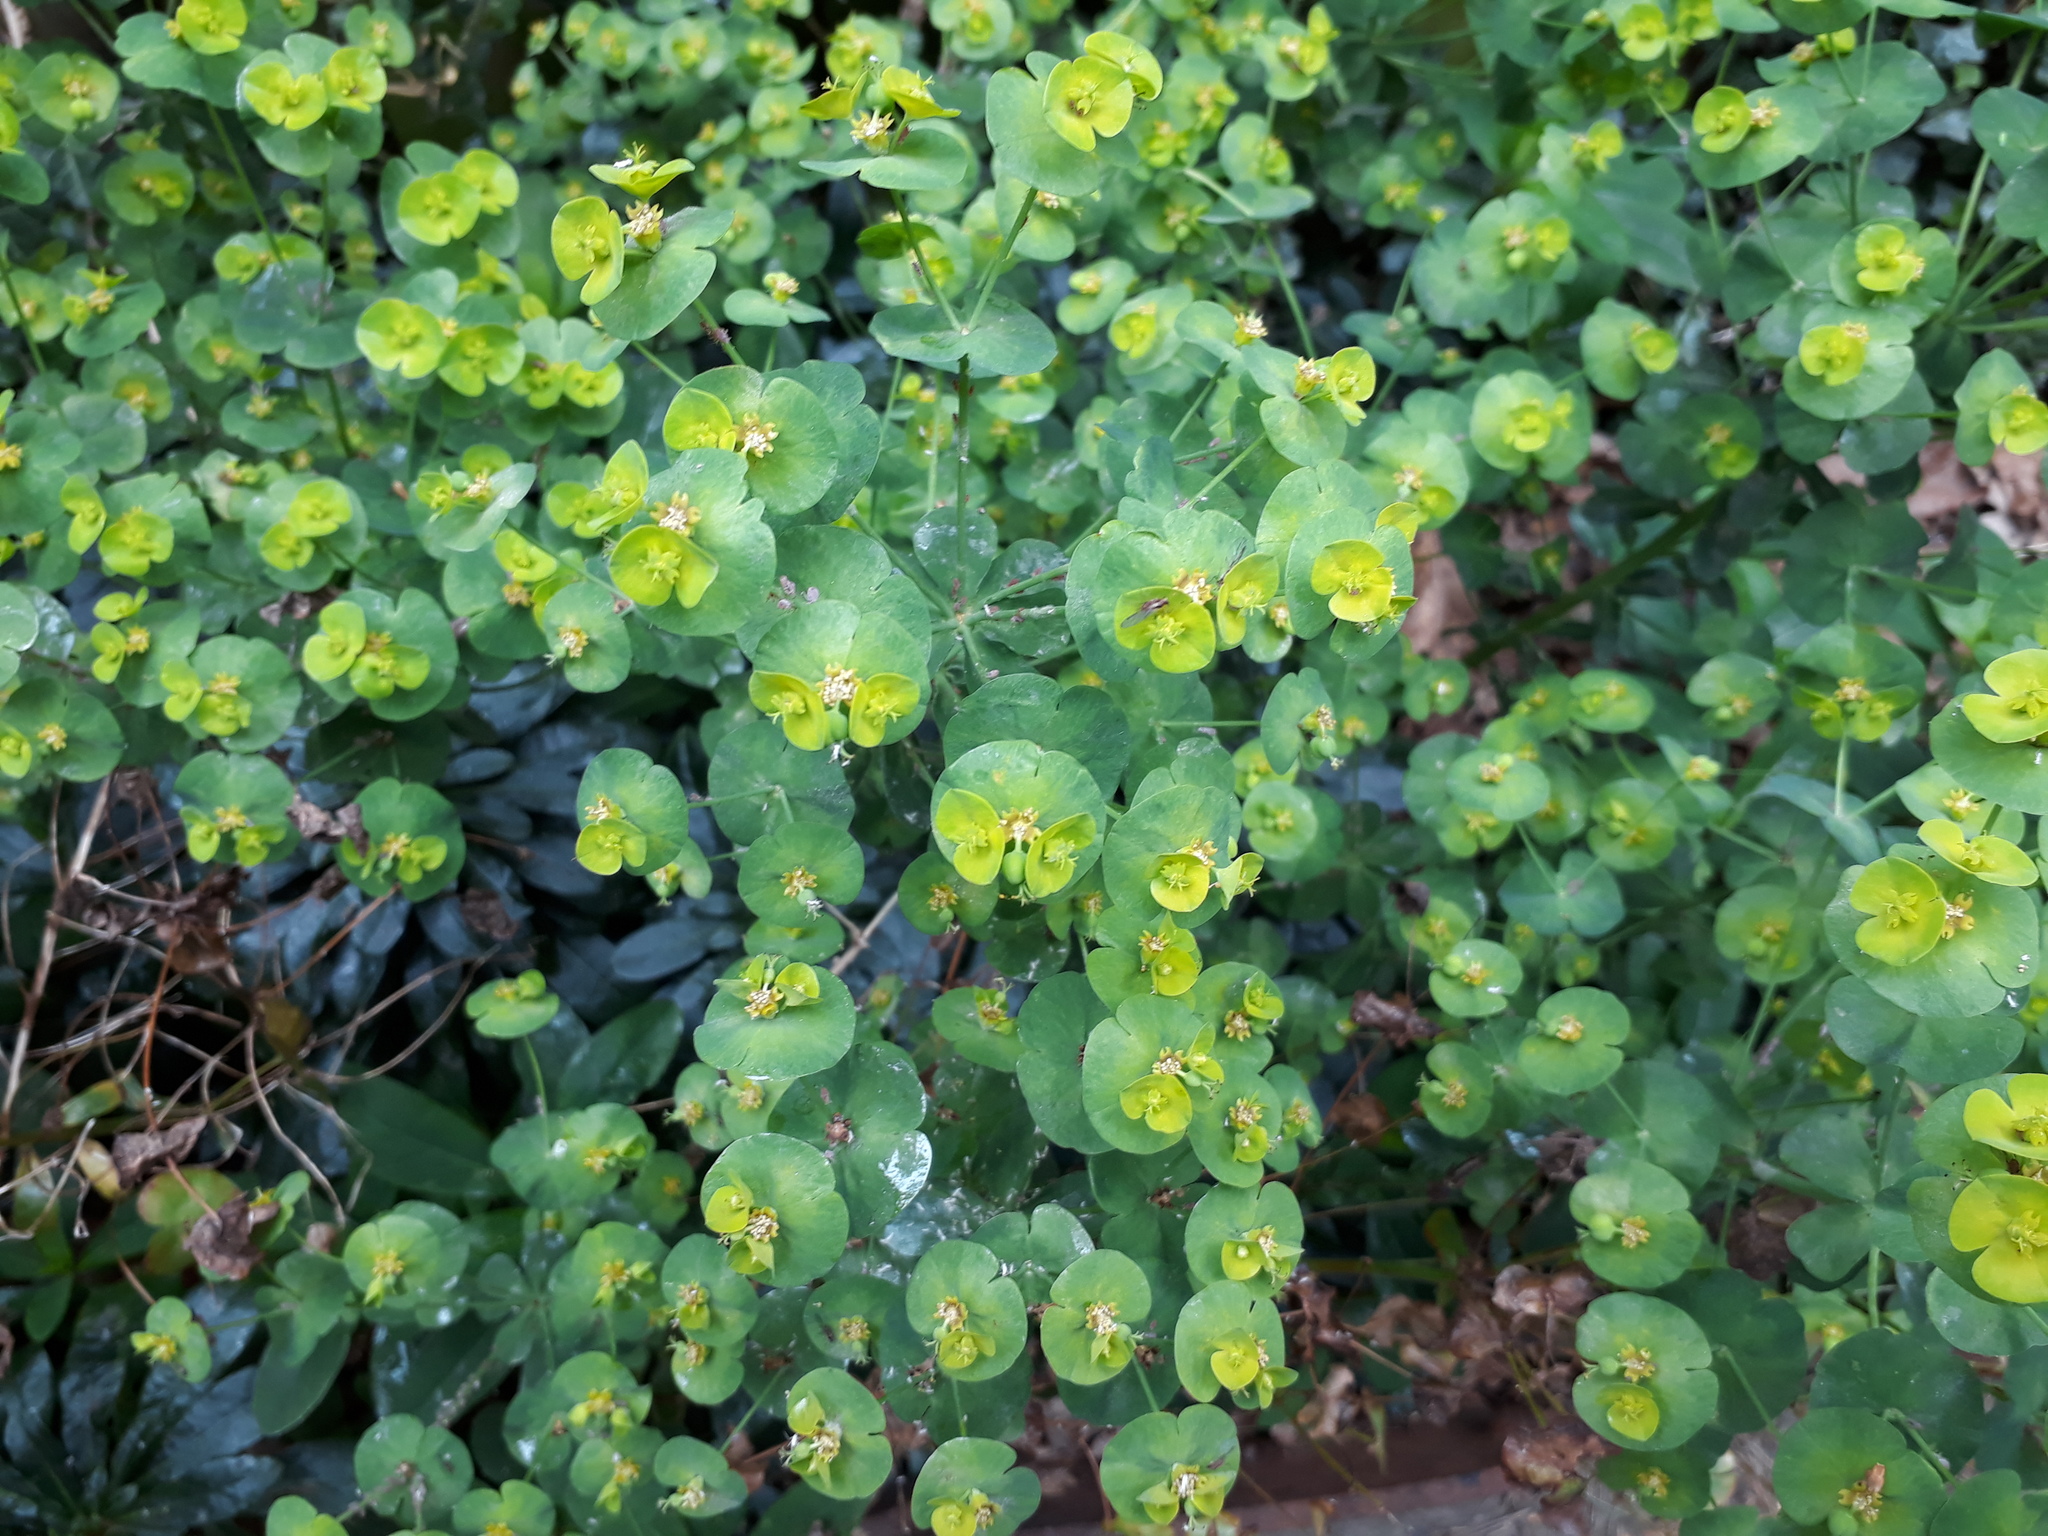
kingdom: Plantae
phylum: Tracheophyta
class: Magnoliopsida
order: Malpighiales
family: Euphorbiaceae
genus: Euphorbia
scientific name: Euphorbia amygdaloides
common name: Wood spurge
